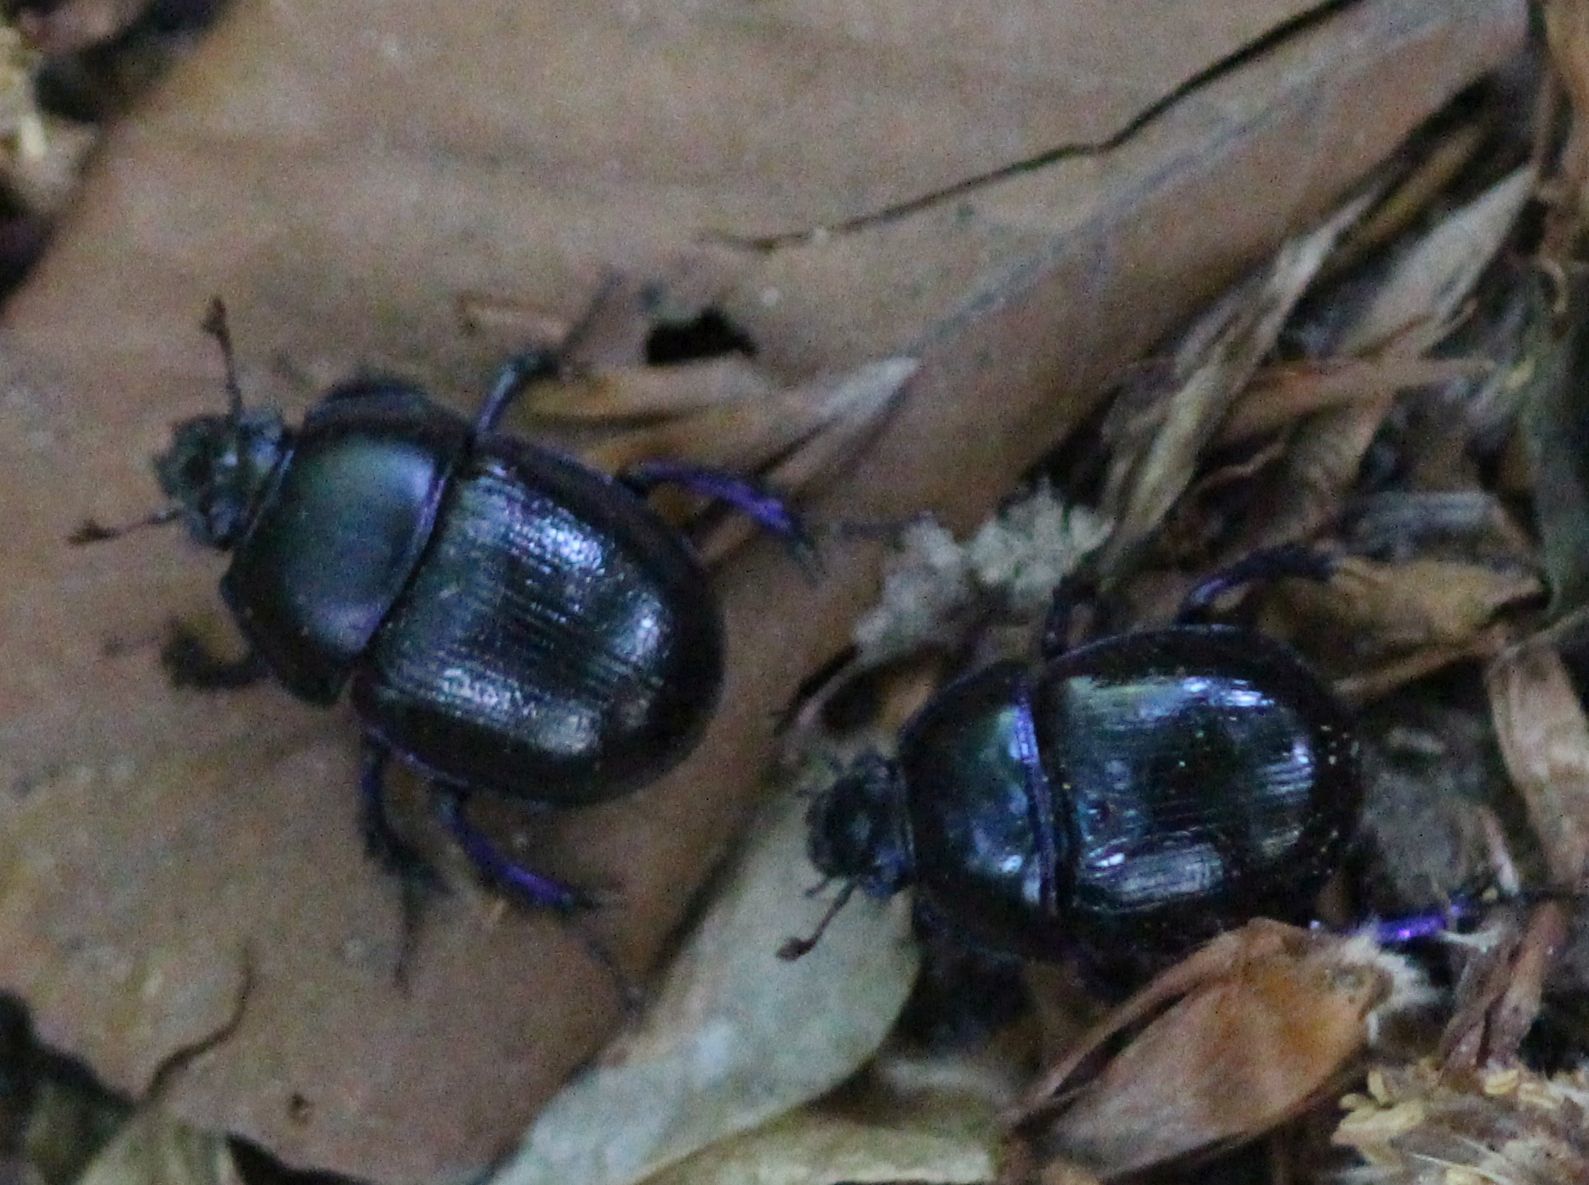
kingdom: Animalia
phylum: Arthropoda
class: Insecta
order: Coleoptera
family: Geotrupidae
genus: Anoplotrupes
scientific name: Anoplotrupes stercorosus
